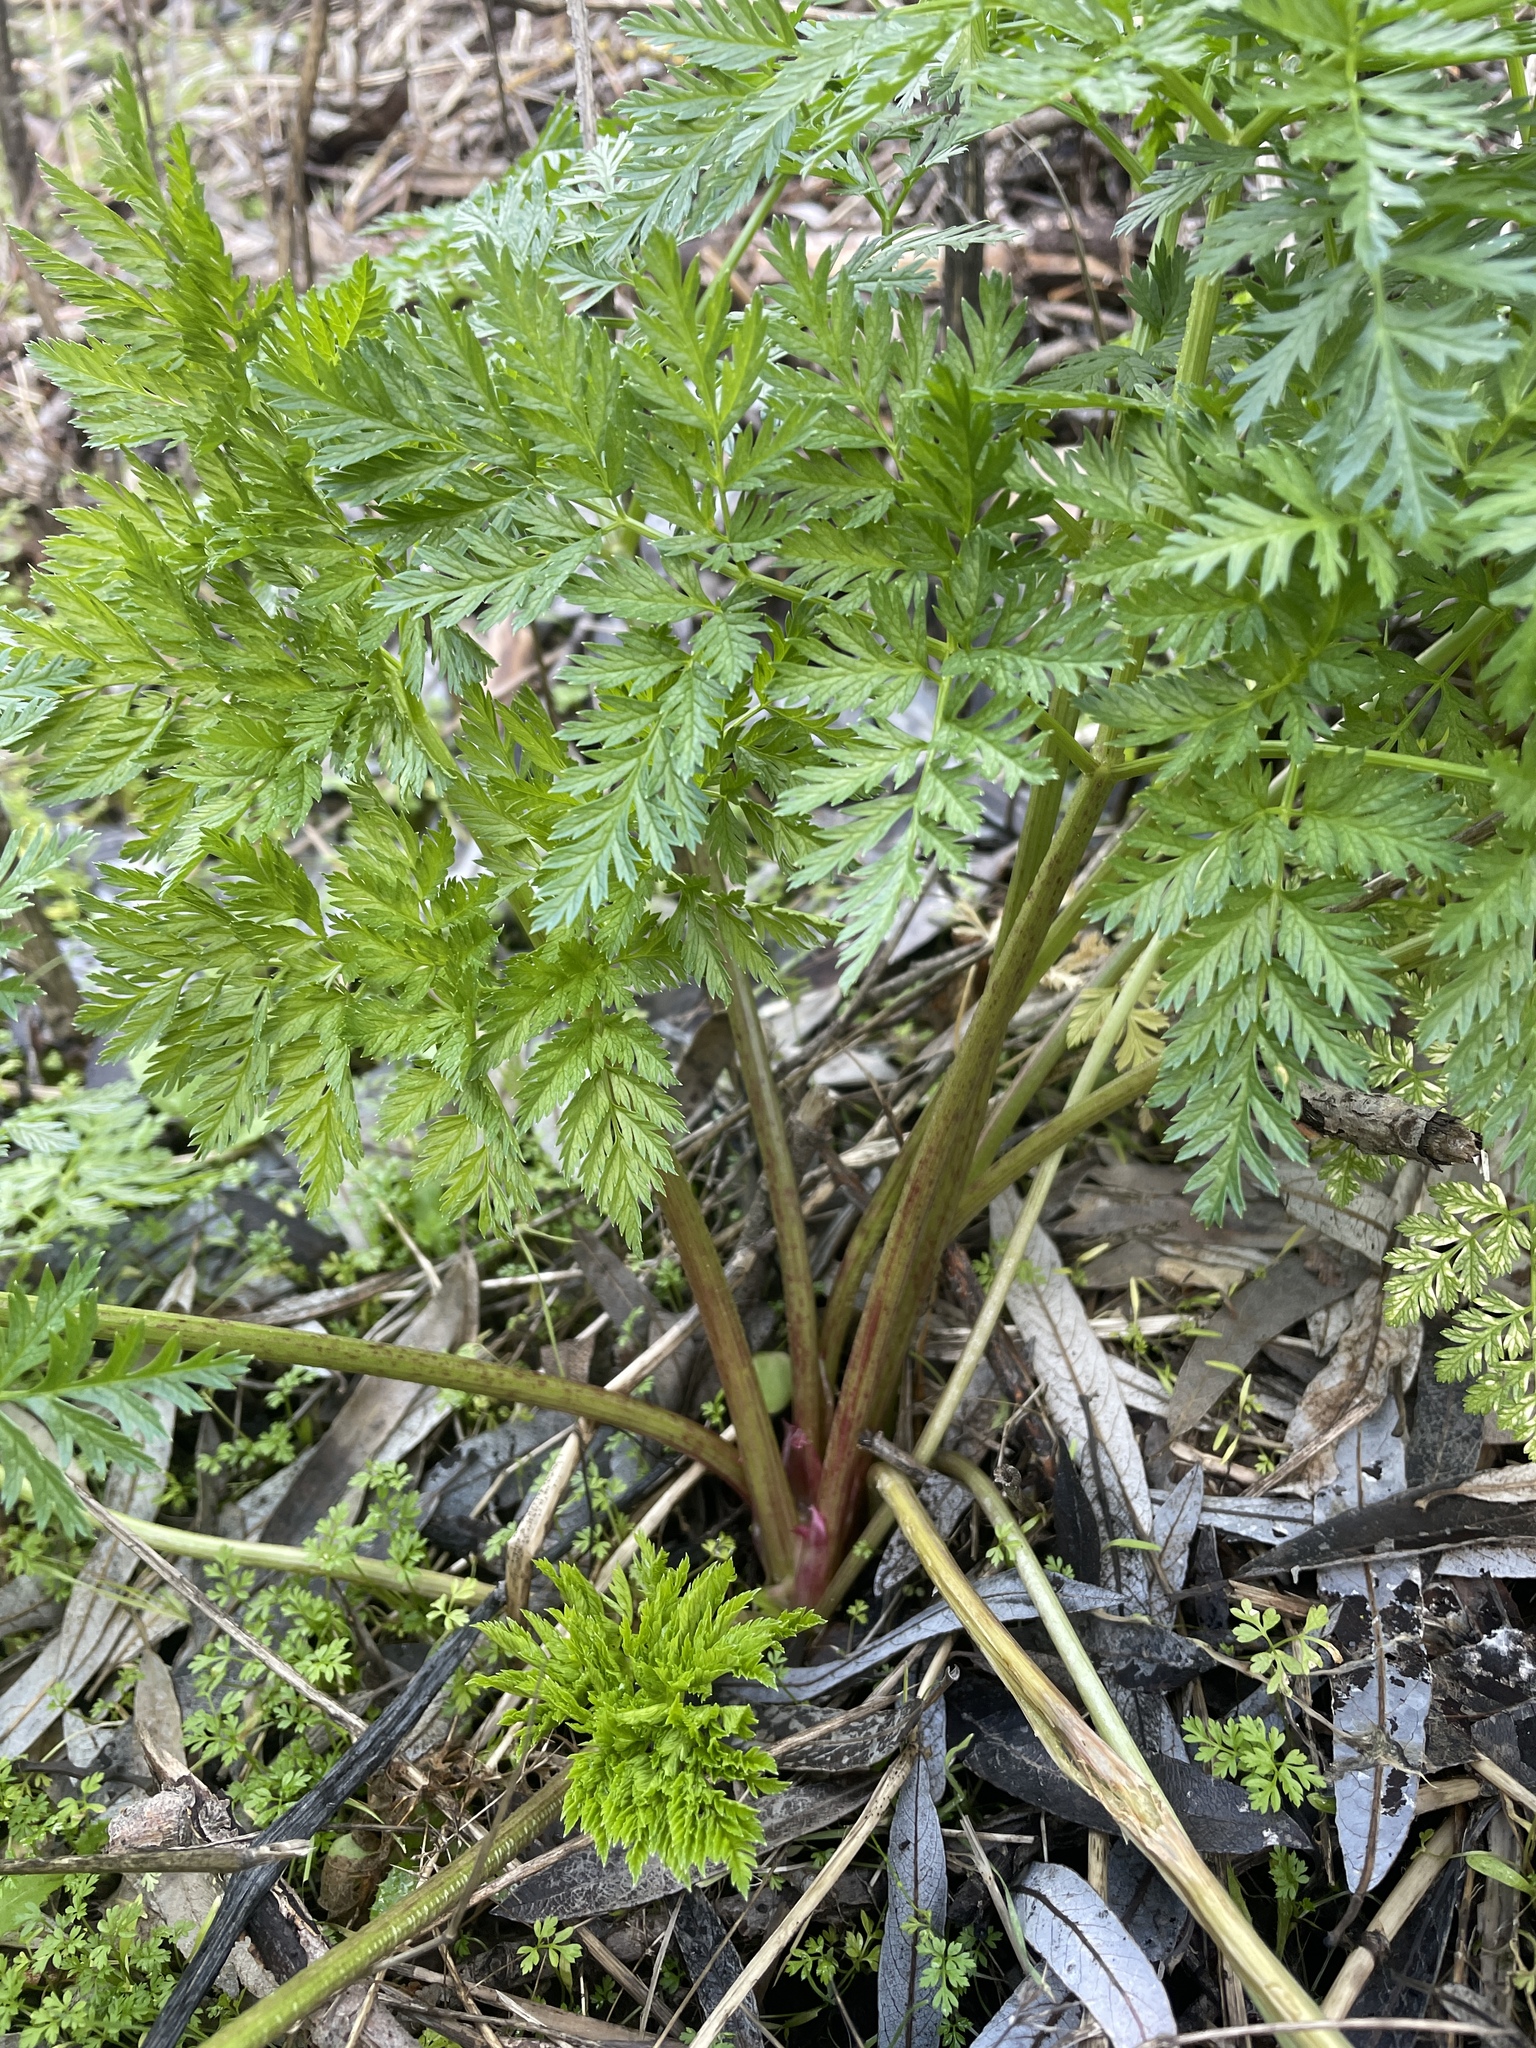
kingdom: Plantae
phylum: Tracheophyta
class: Magnoliopsida
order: Apiales
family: Apiaceae
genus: Conium
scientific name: Conium maculatum
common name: Hemlock
